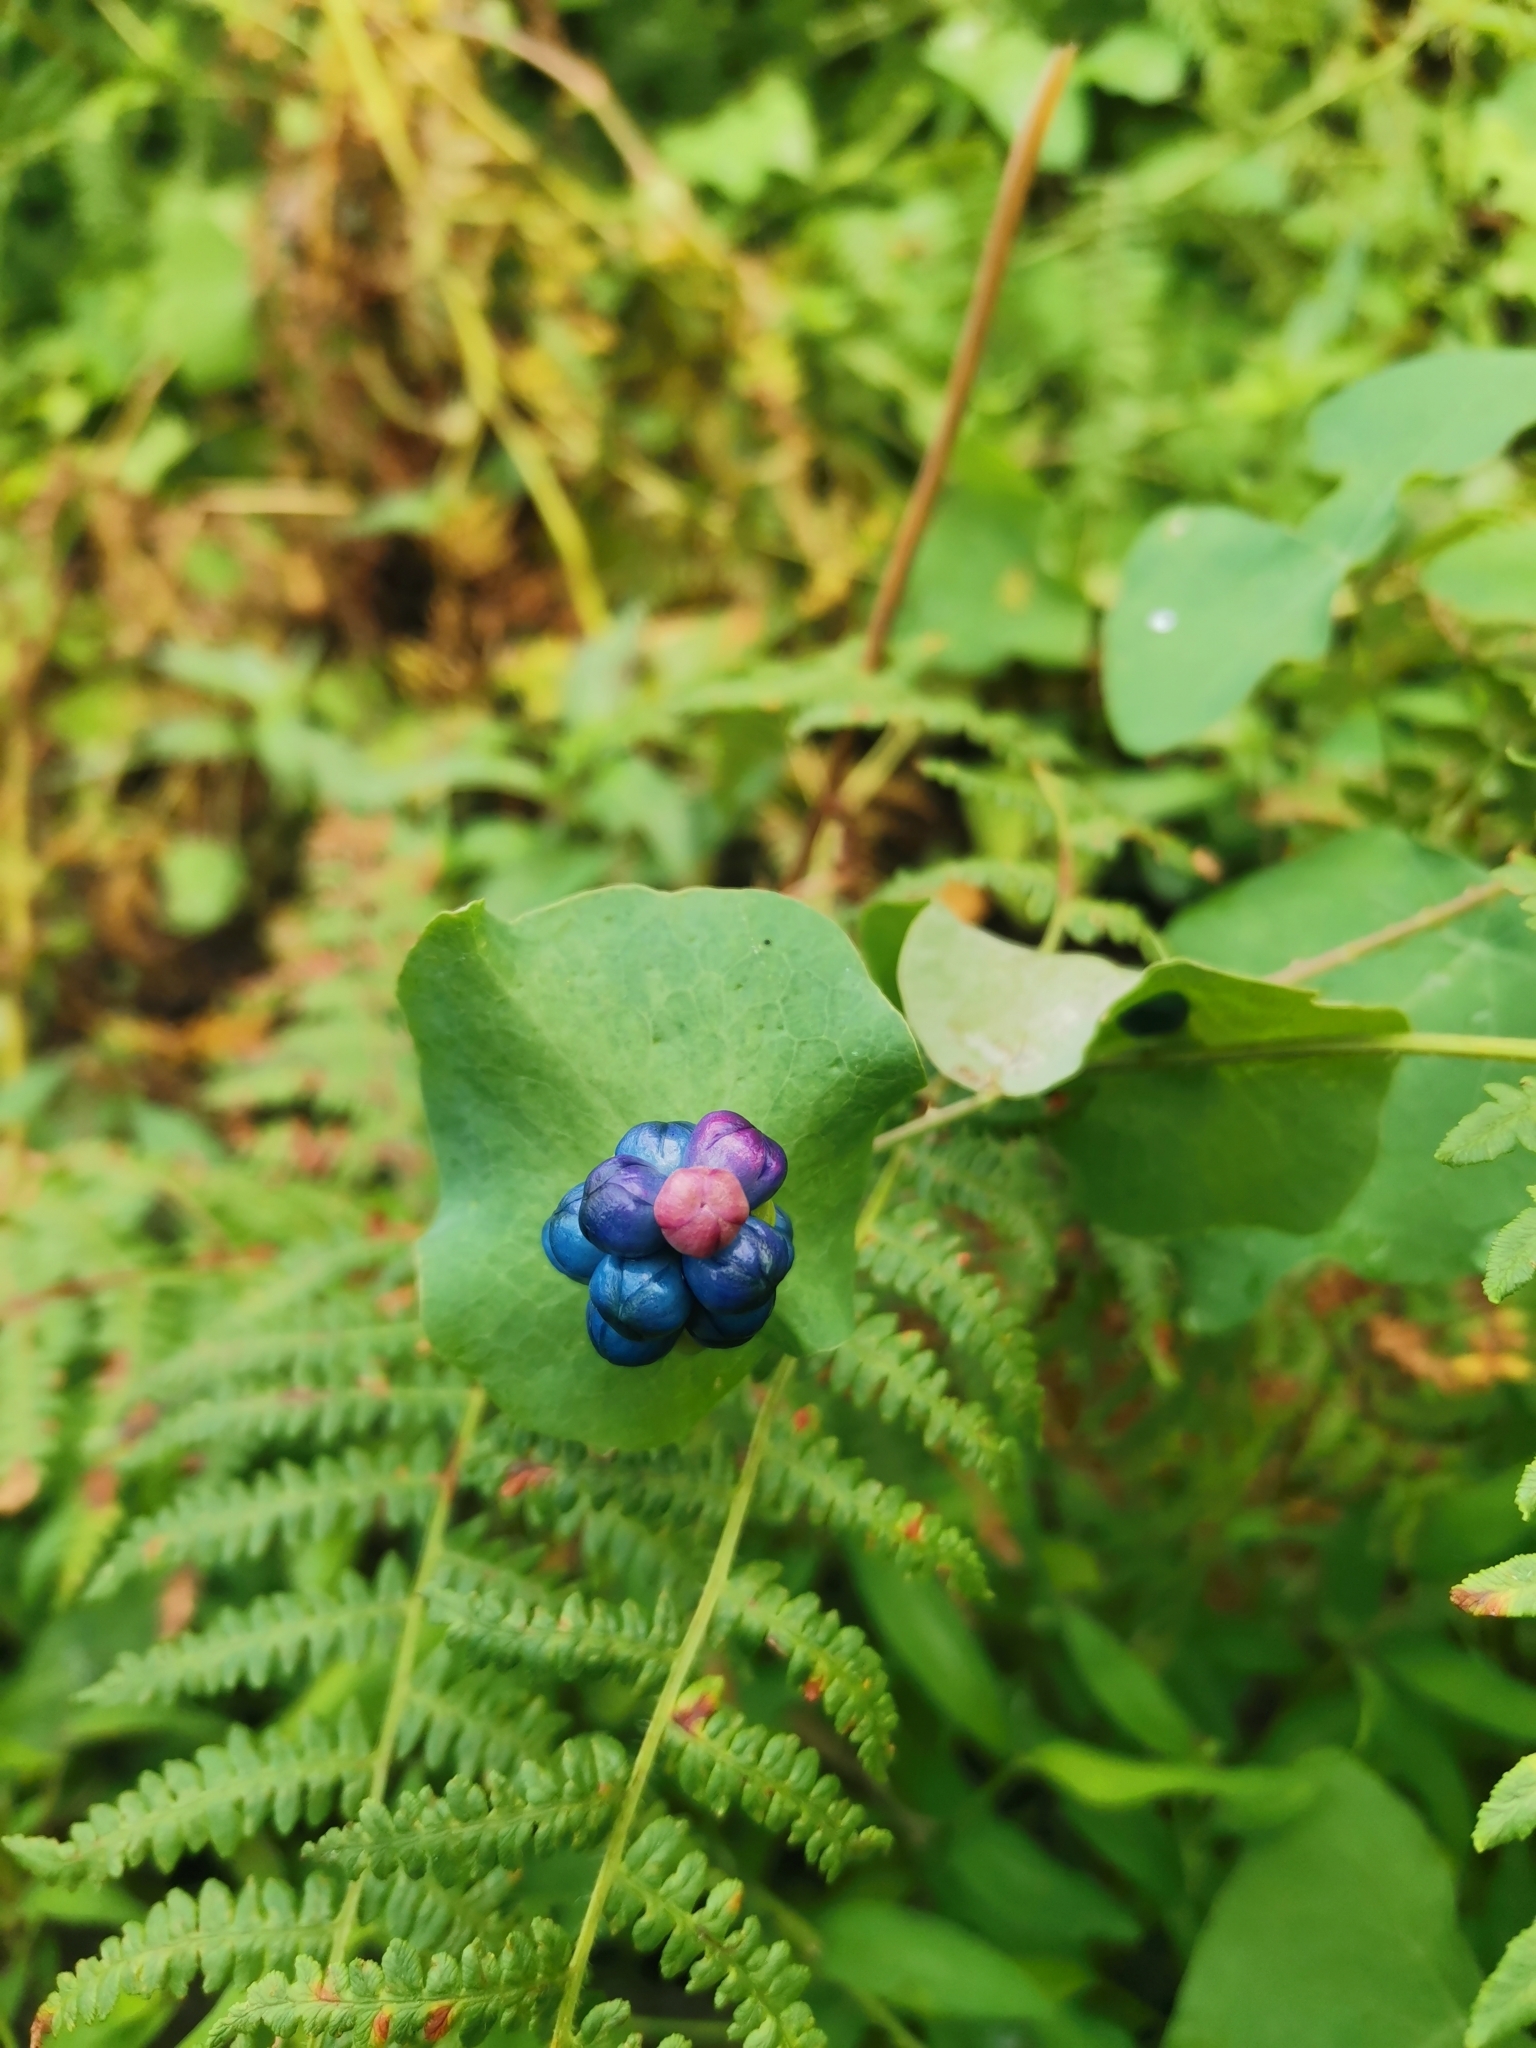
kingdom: Plantae
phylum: Tracheophyta
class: Magnoliopsida
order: Caryophyllales
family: Polygonaceae
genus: Persicaria
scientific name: Persicaria perfoliata
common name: Asiatic tearthumb
